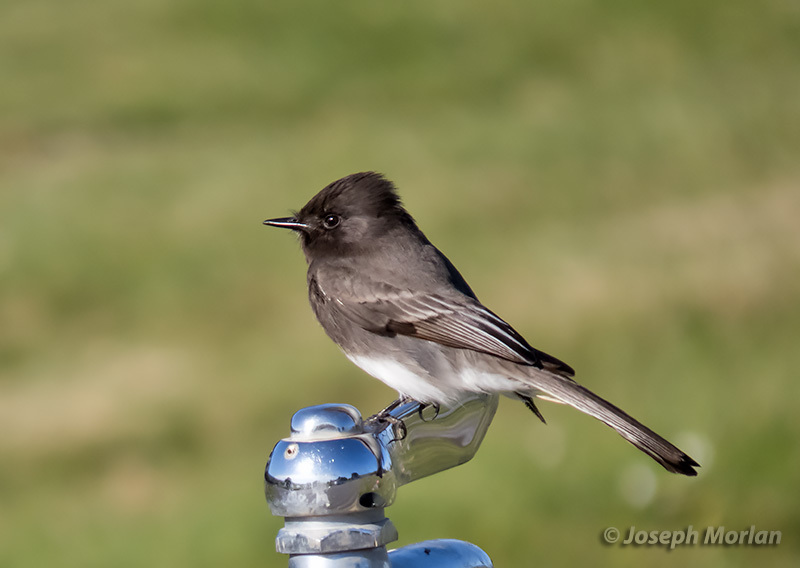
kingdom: Animalia
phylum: Chordata
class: Aves
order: Passeriformes
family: Tyrannidae
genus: Sayornis
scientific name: Sayornis nigricans
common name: Black phoebe
